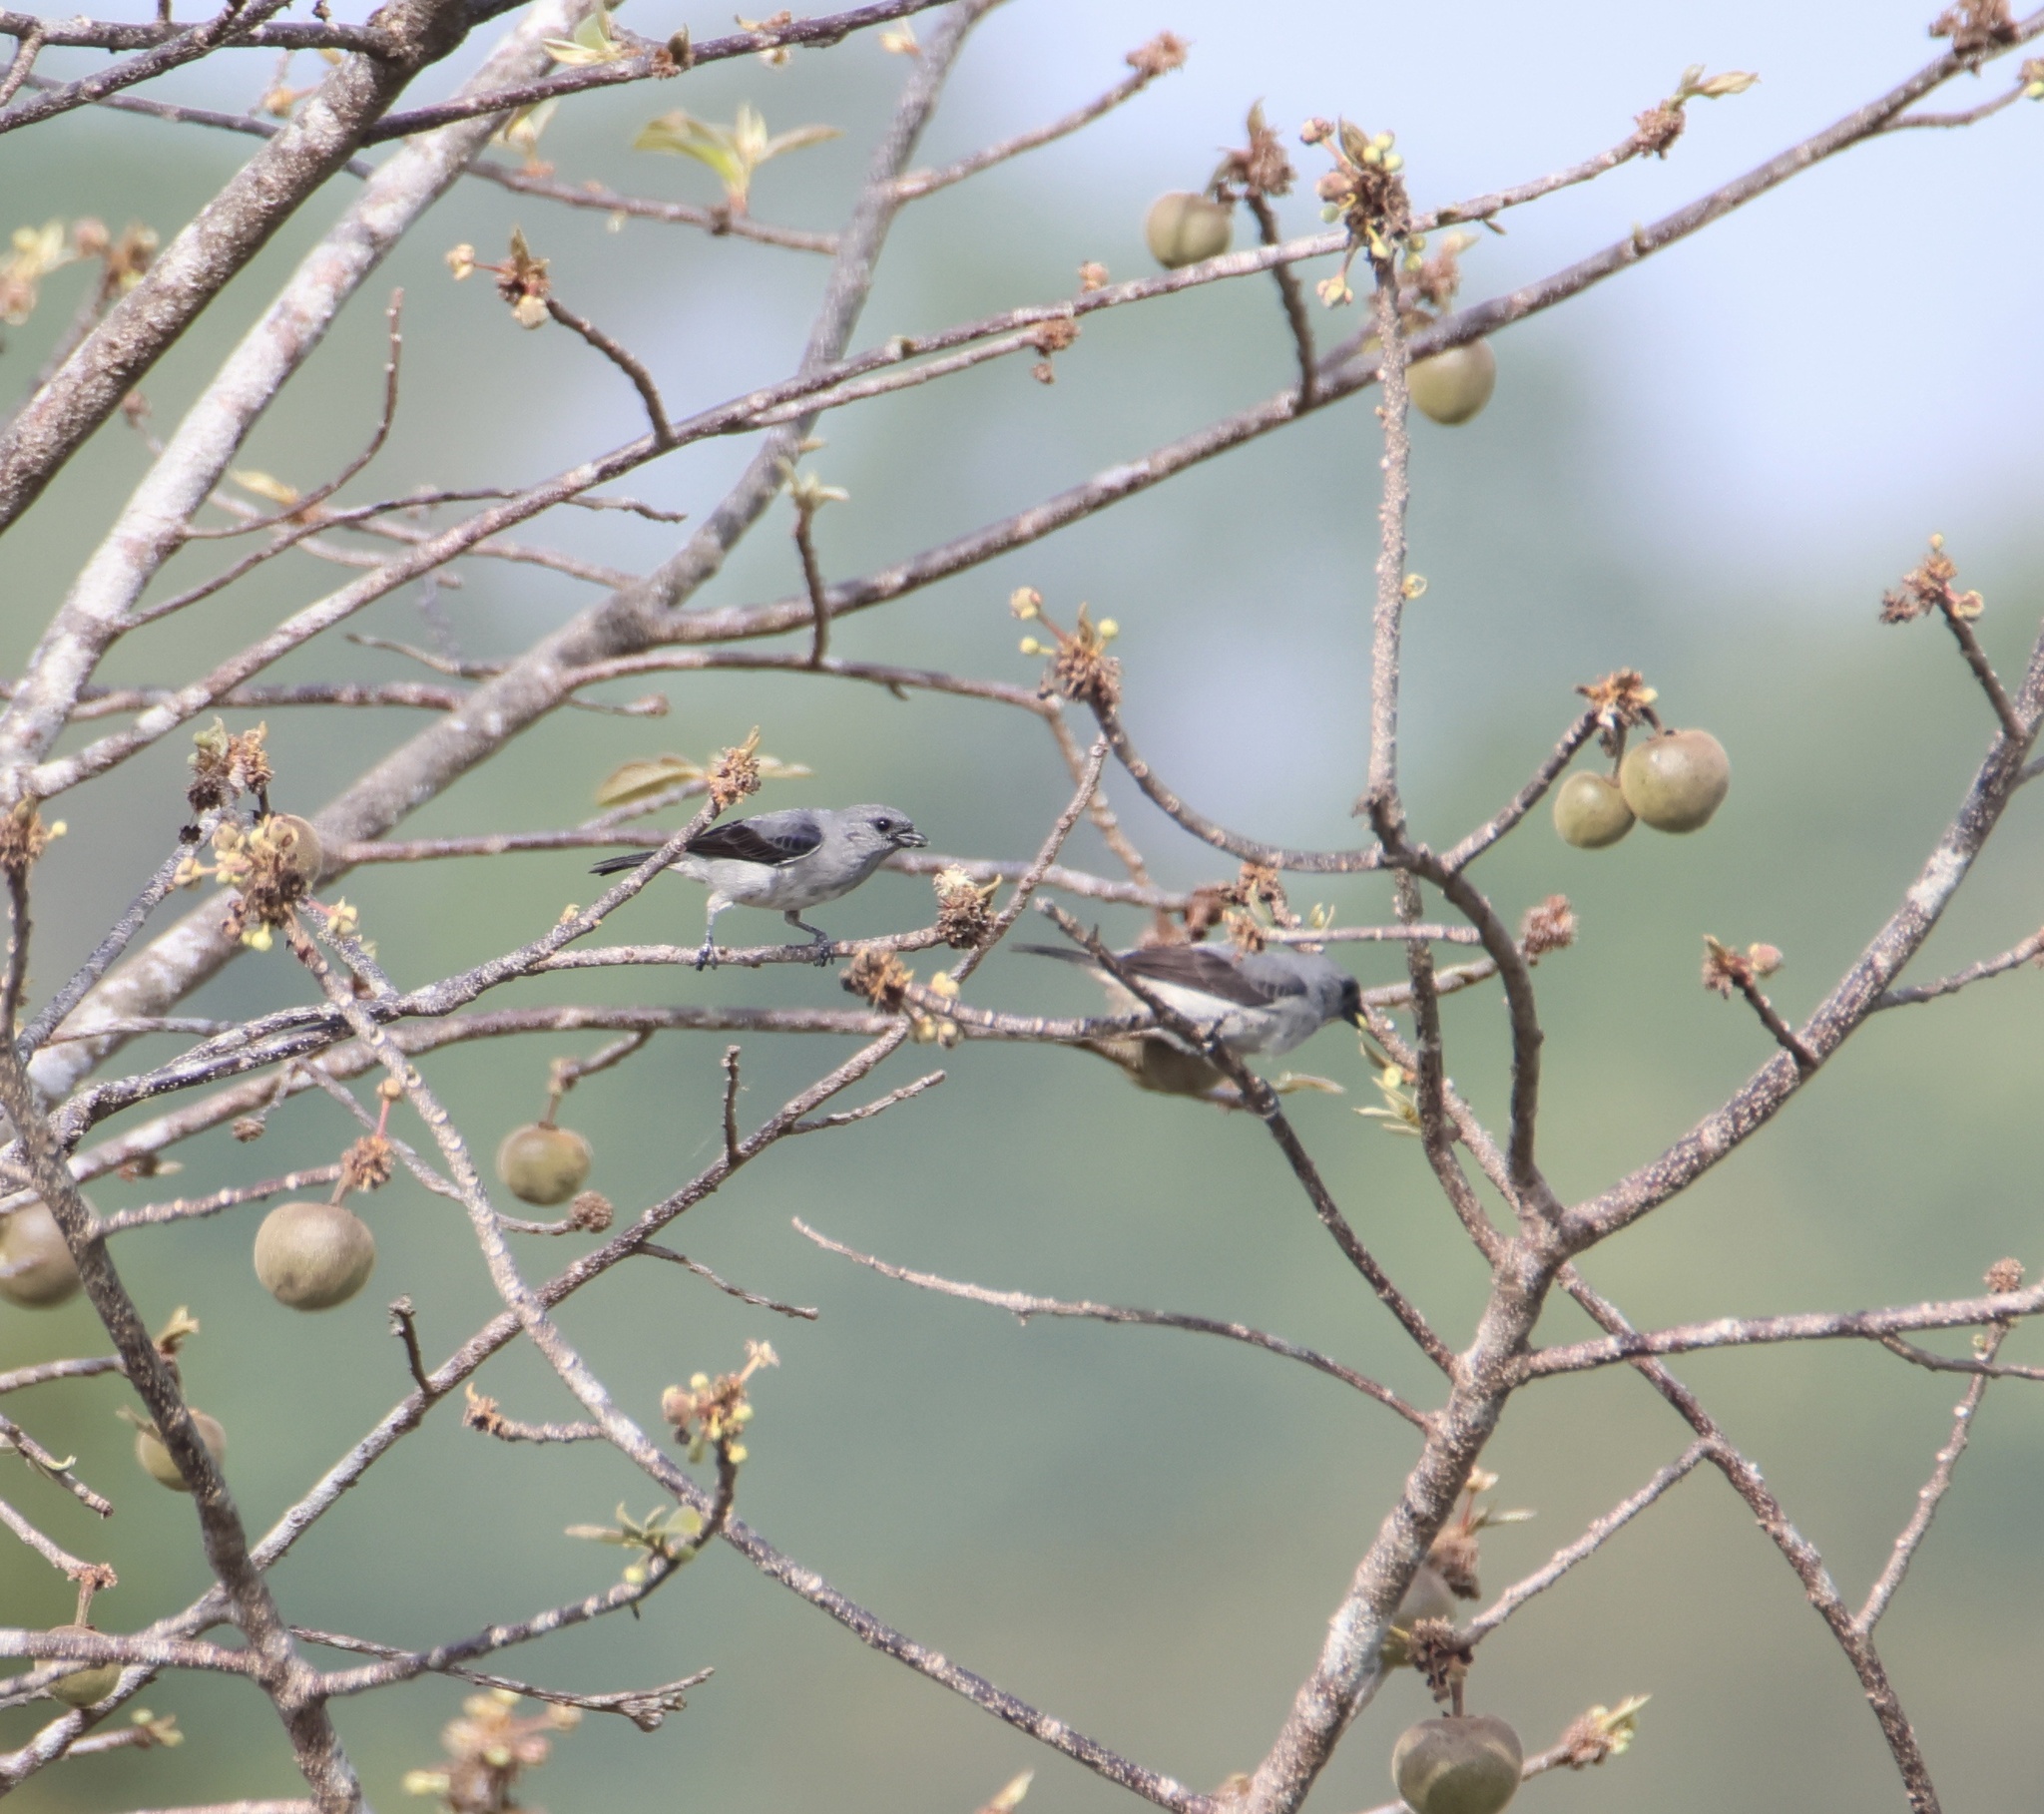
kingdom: Animalia
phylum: Chordata
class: Aves
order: Passeriformes
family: Thraupidae
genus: Tangara
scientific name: Tangara inornata
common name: Plain-colored tanager
